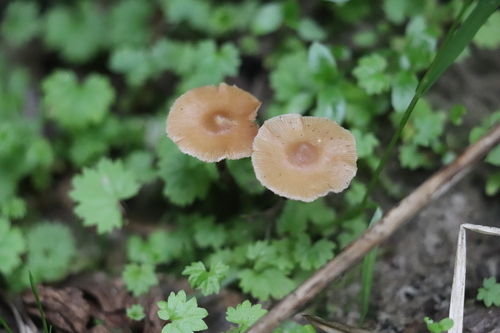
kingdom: Fungi
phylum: Basidiomycota
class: Agaricomycetes
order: Agaricales
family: Strophariaceae
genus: Pholiota
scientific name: Pholiota lignicola
